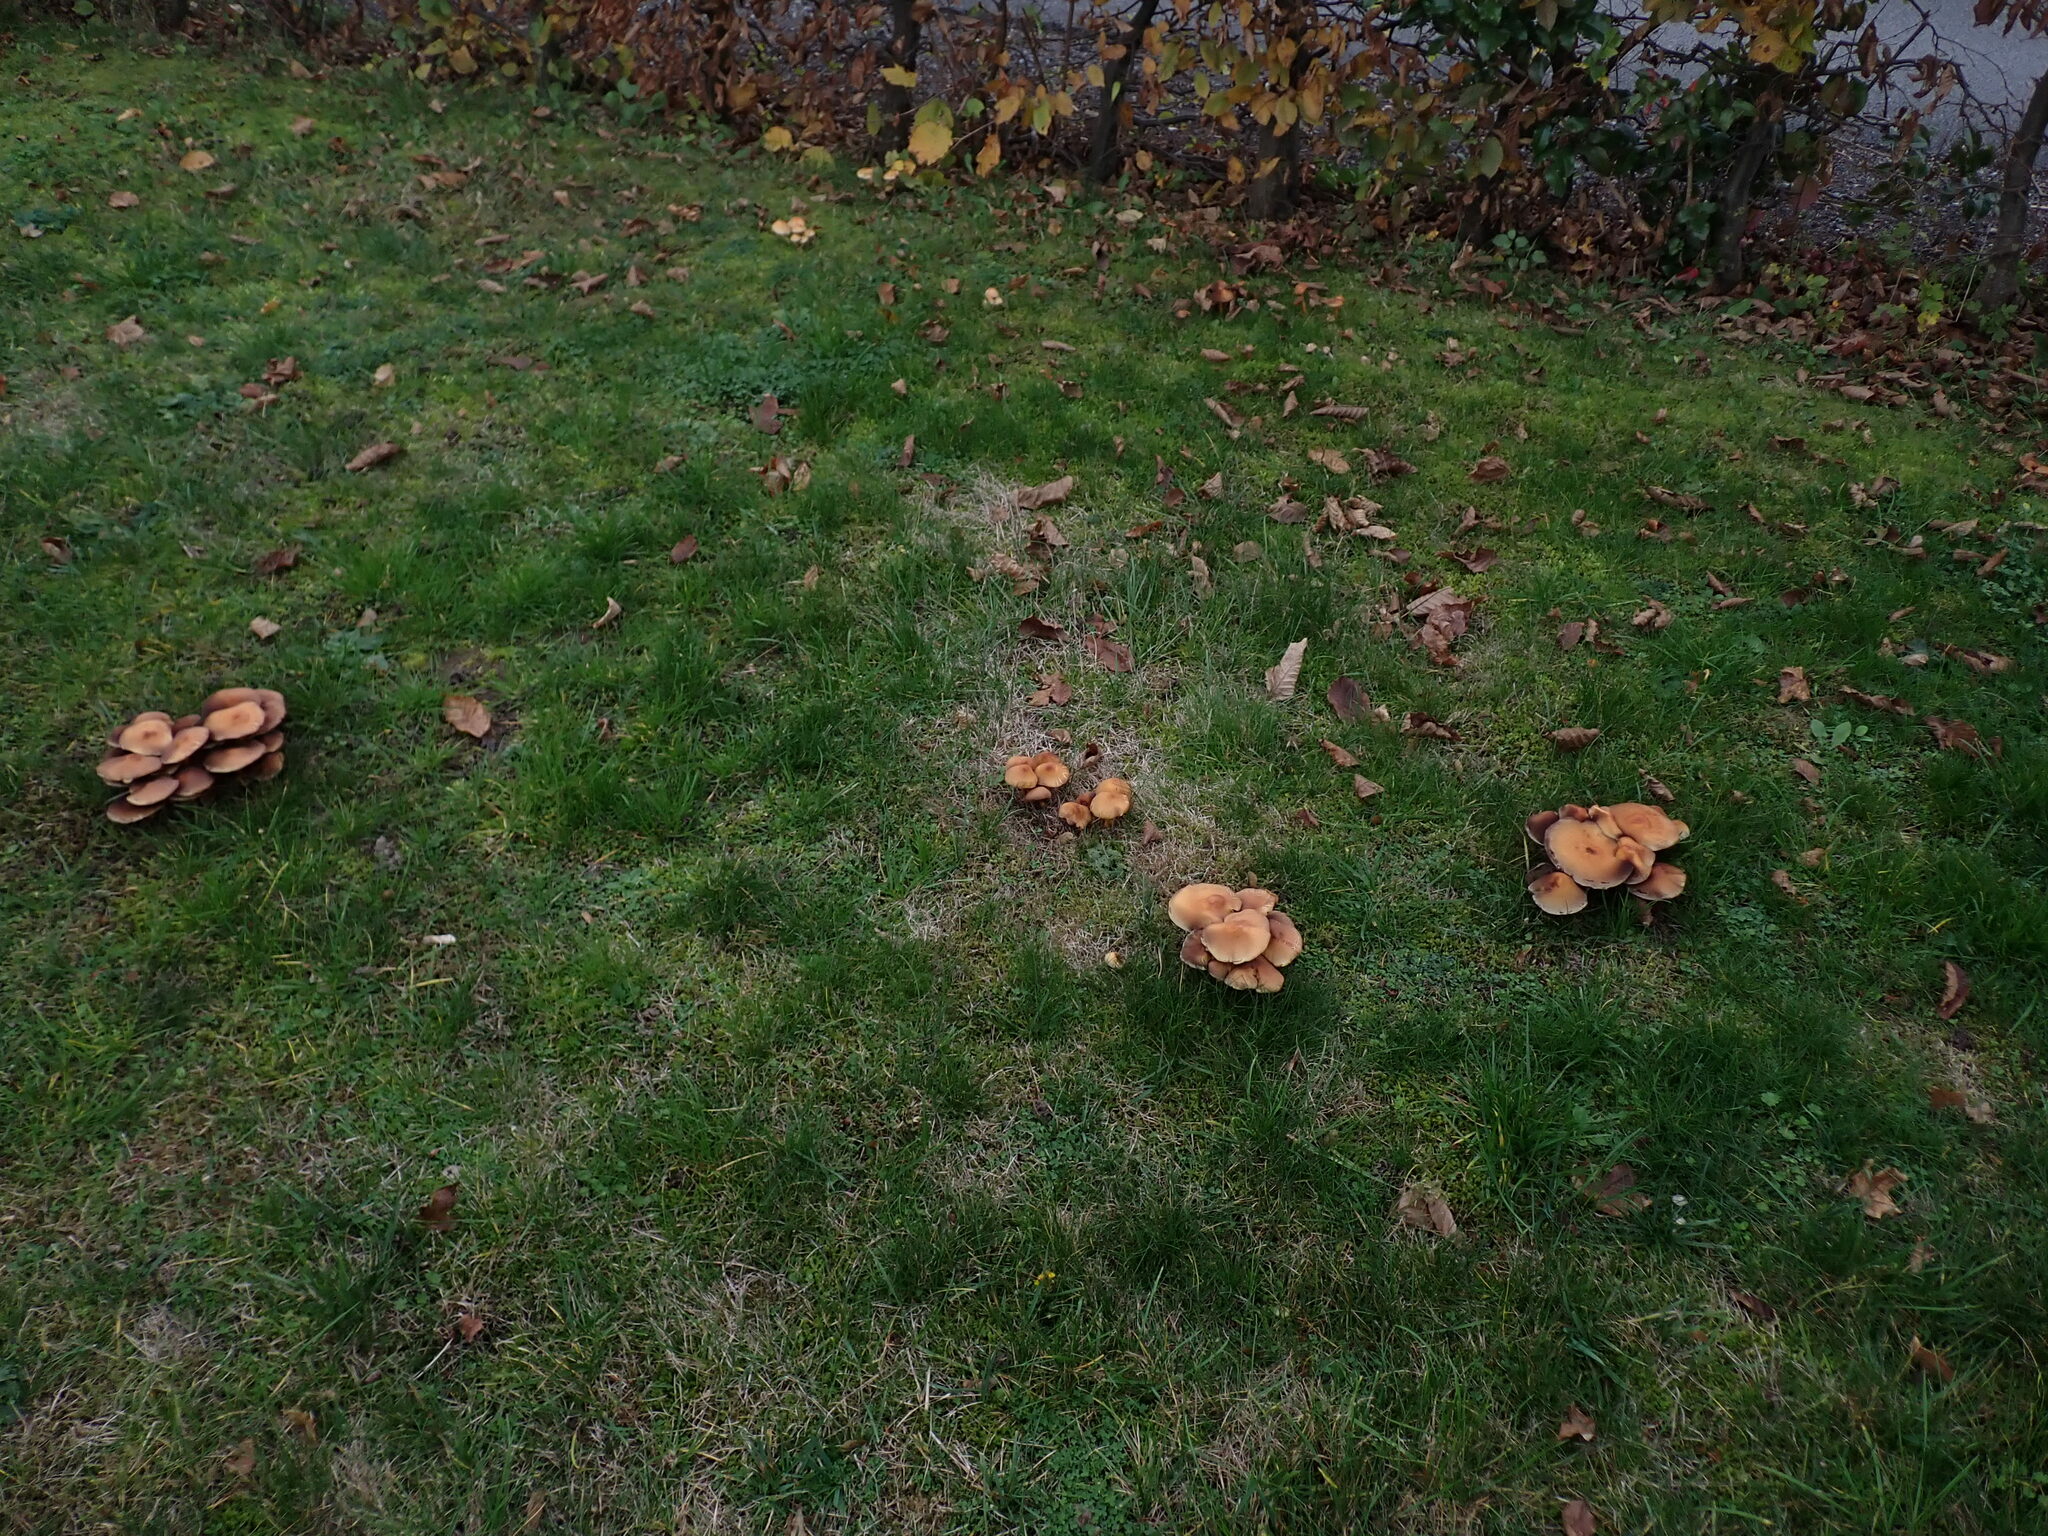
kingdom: Fungi
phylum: Basidiomycota
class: Agaricomycetes
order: Agaricales
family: Strophariaceae
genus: Hypholoma
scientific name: Hypholoma fasciculare
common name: Sulphur tuft
